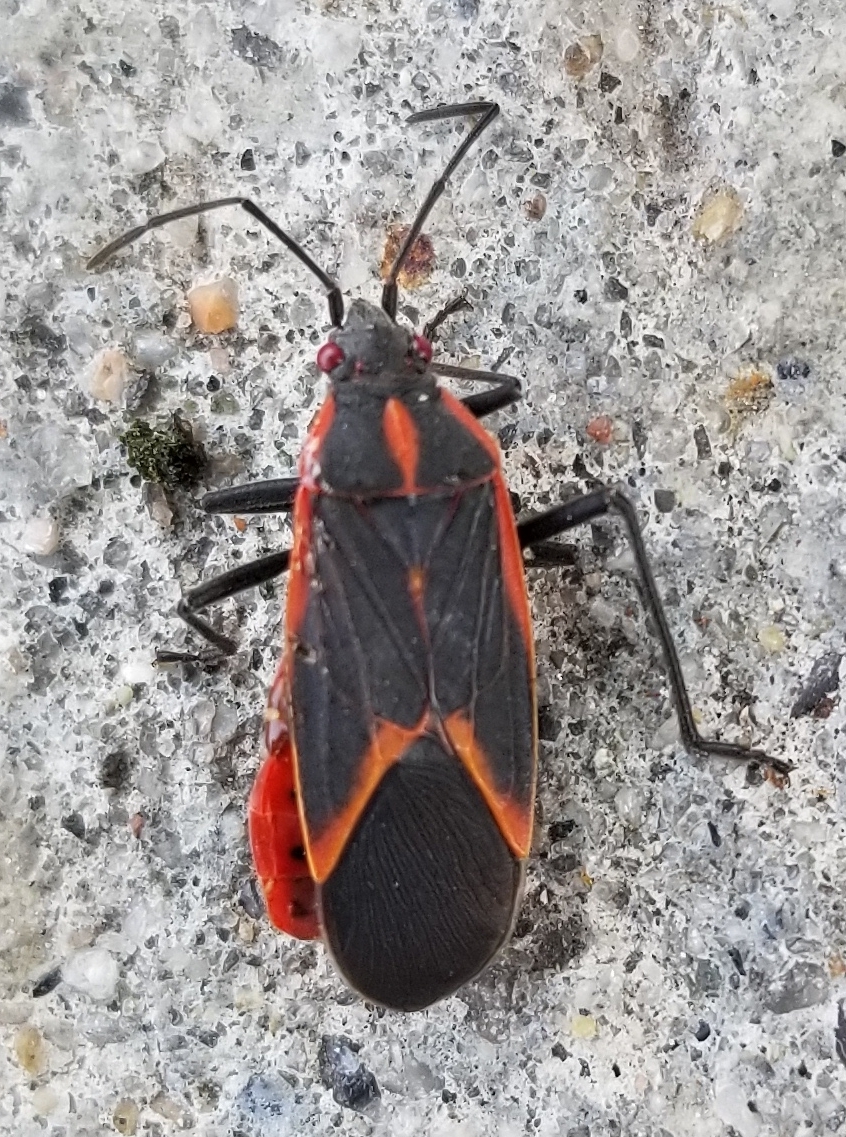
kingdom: Animalia
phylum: Arthropoda
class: Insecta
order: Hemiptera
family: Rhopalidae
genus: Boisea
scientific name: Boisea trivittata
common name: Boxelder bug
